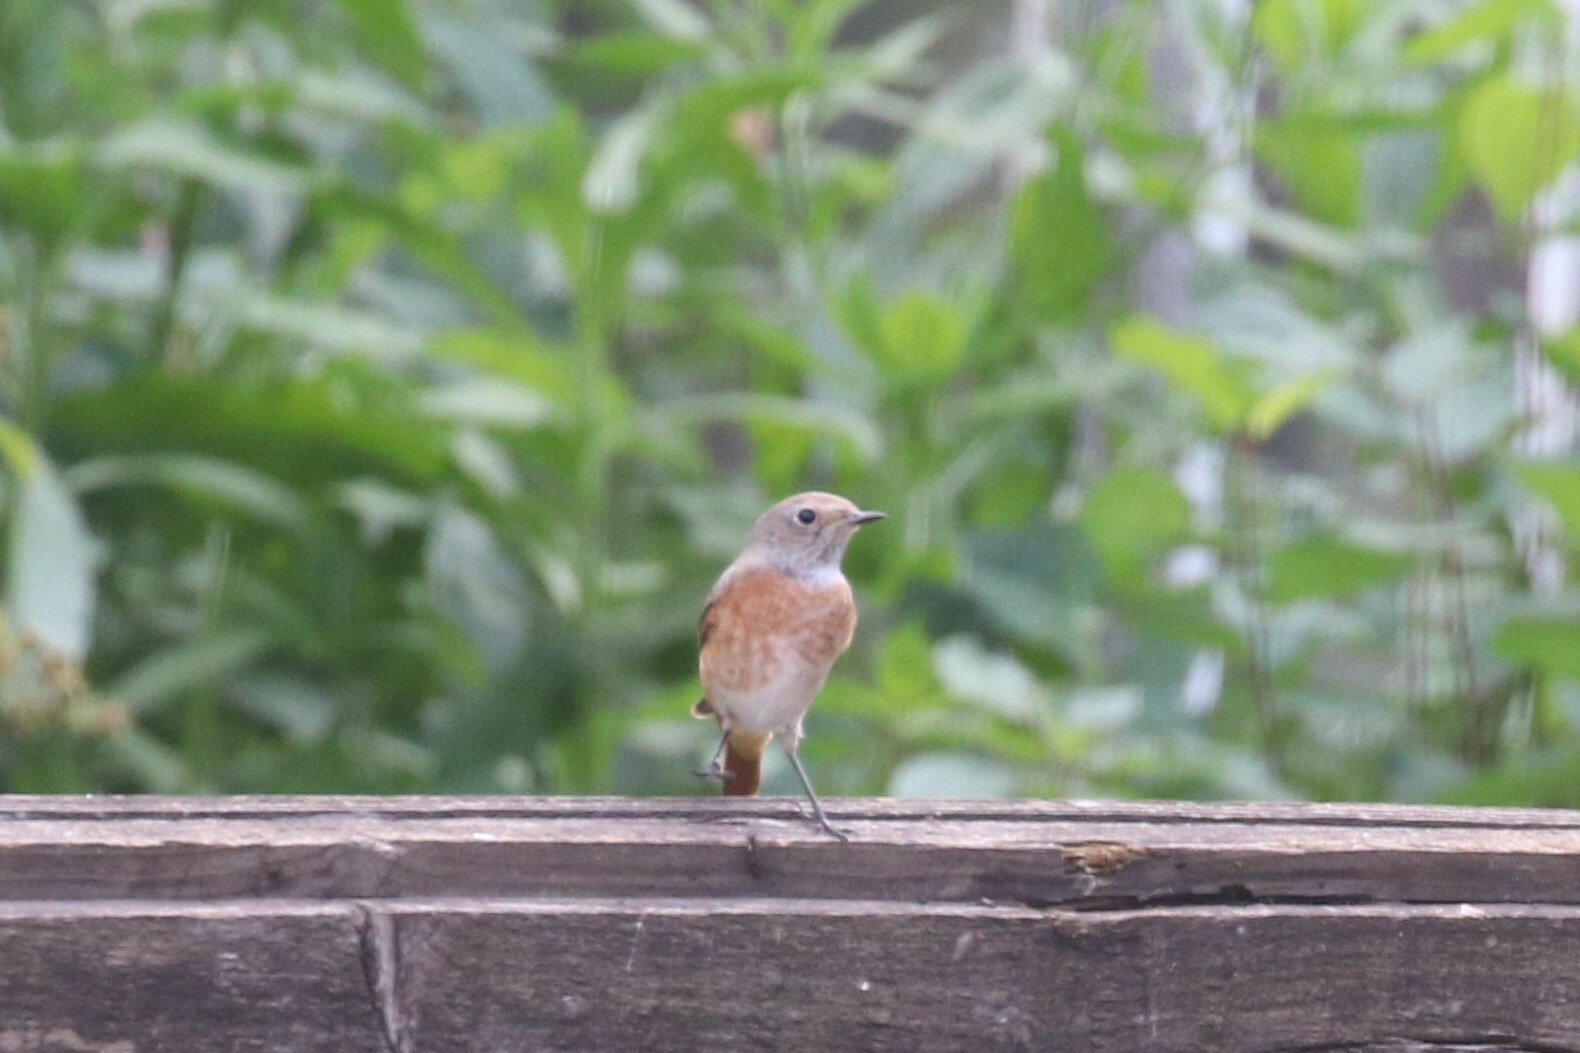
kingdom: Animalia
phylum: Chordata
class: Aves
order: Passeriformes
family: Muscicapidae
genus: Phoenicurus
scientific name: Phoenicurus phoenicurus
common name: Common redstart
